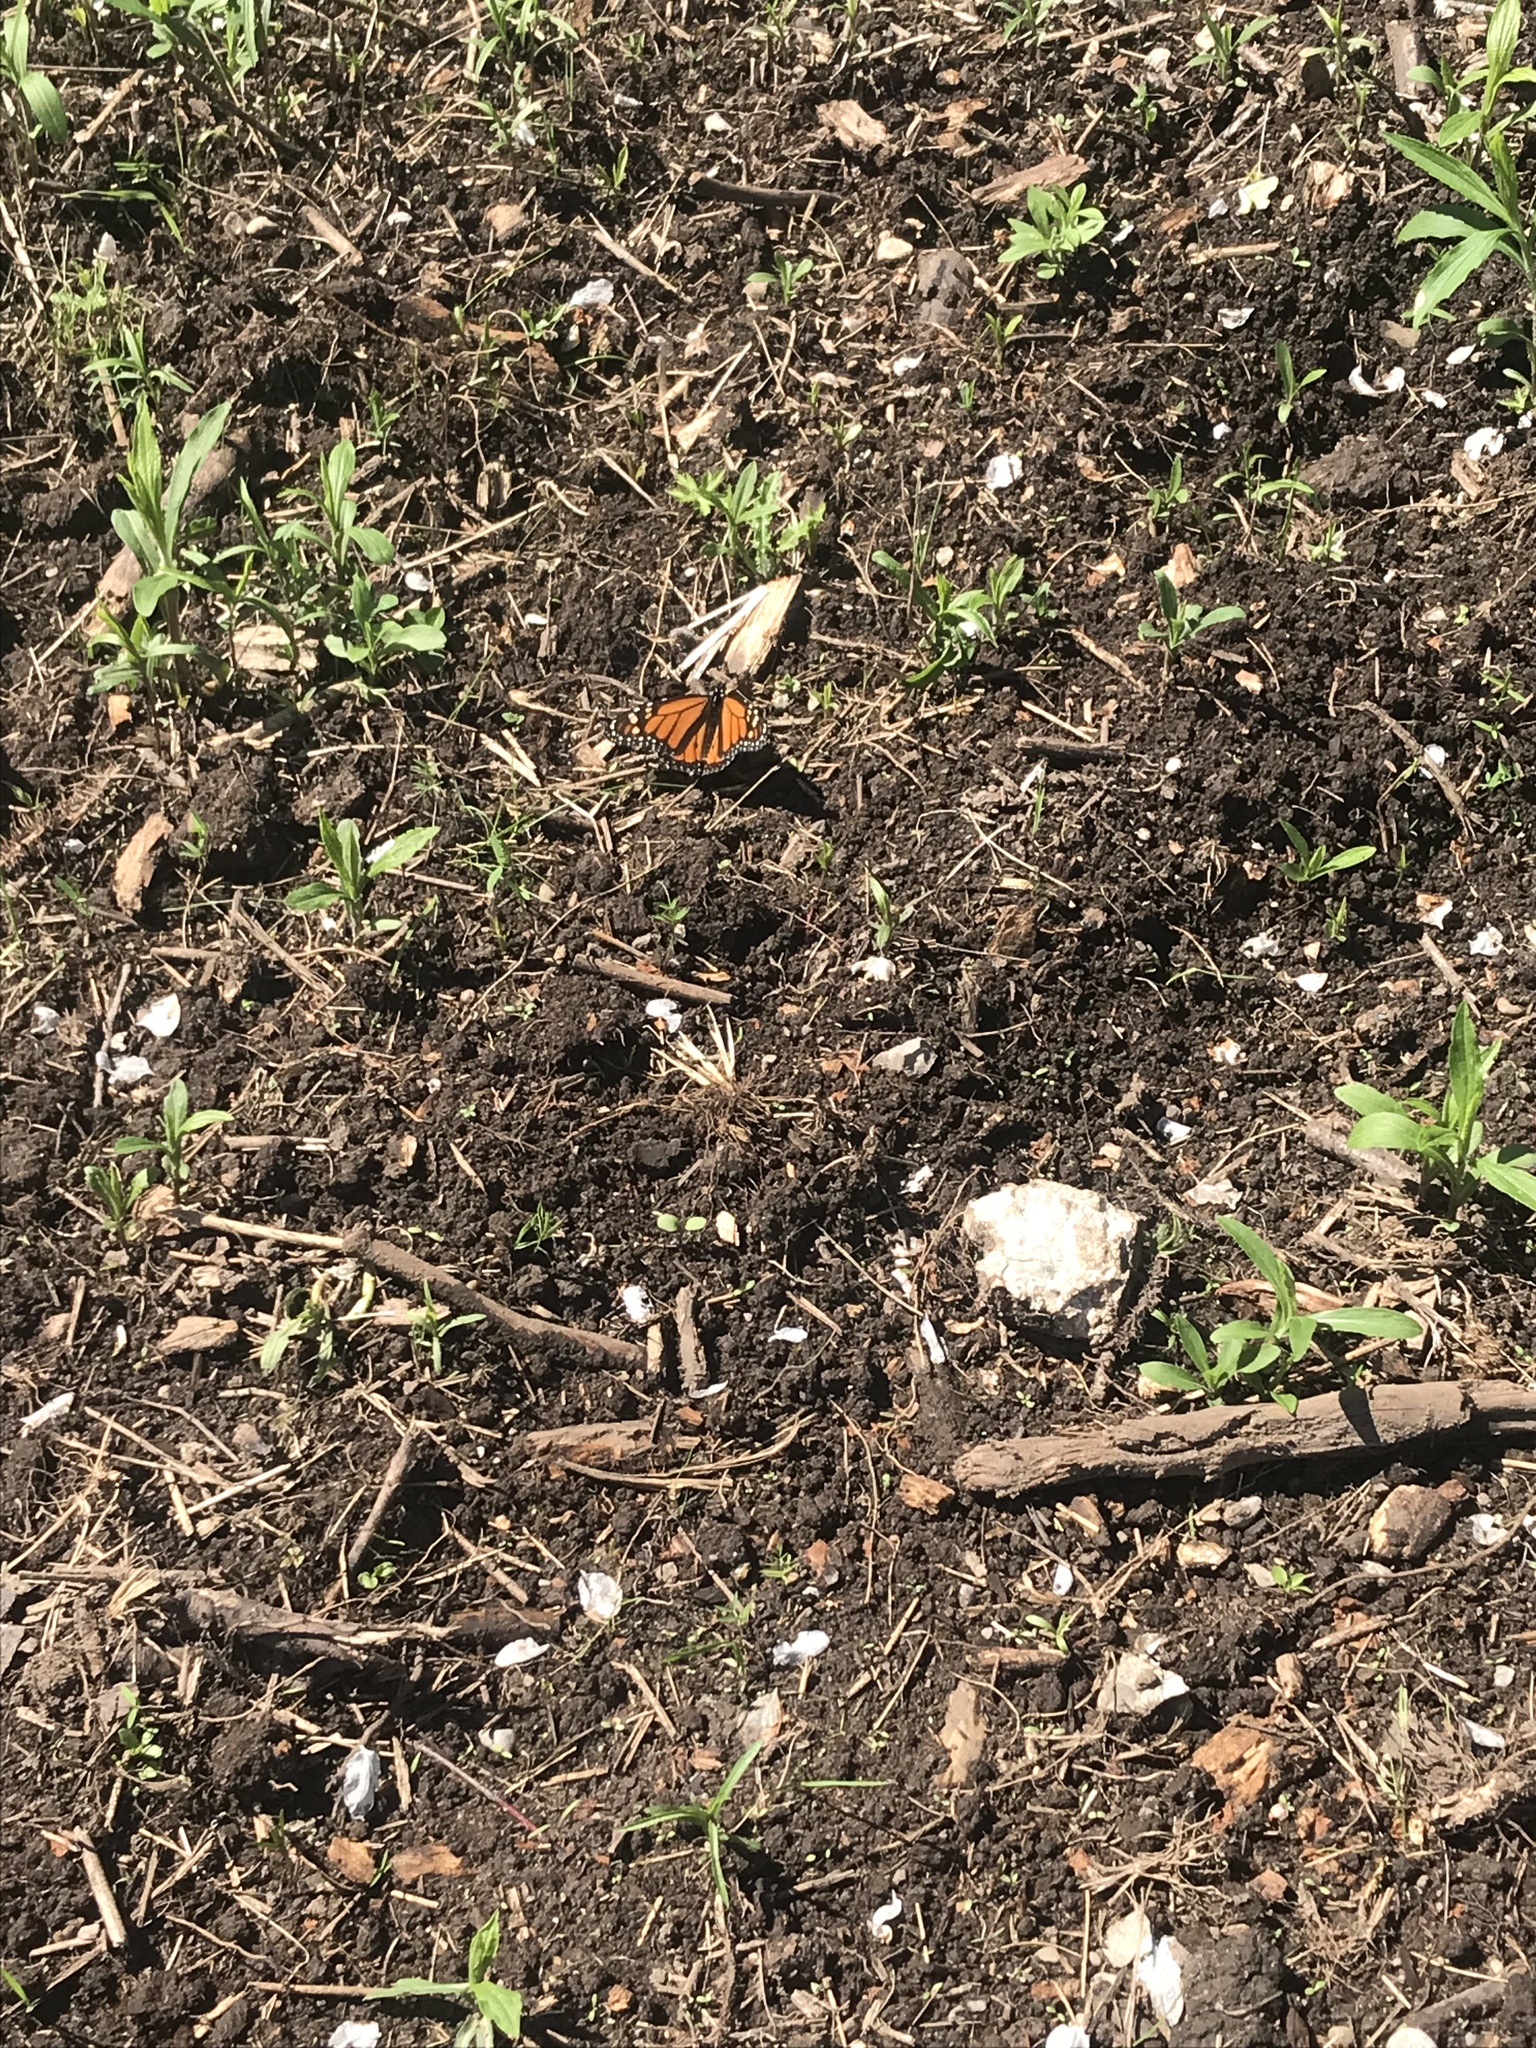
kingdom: Animalia
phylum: Arthropoda
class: Insecta
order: Lepidoptera
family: Nymphalidae
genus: Danaus
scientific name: Danaus plexippus
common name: Monarch
